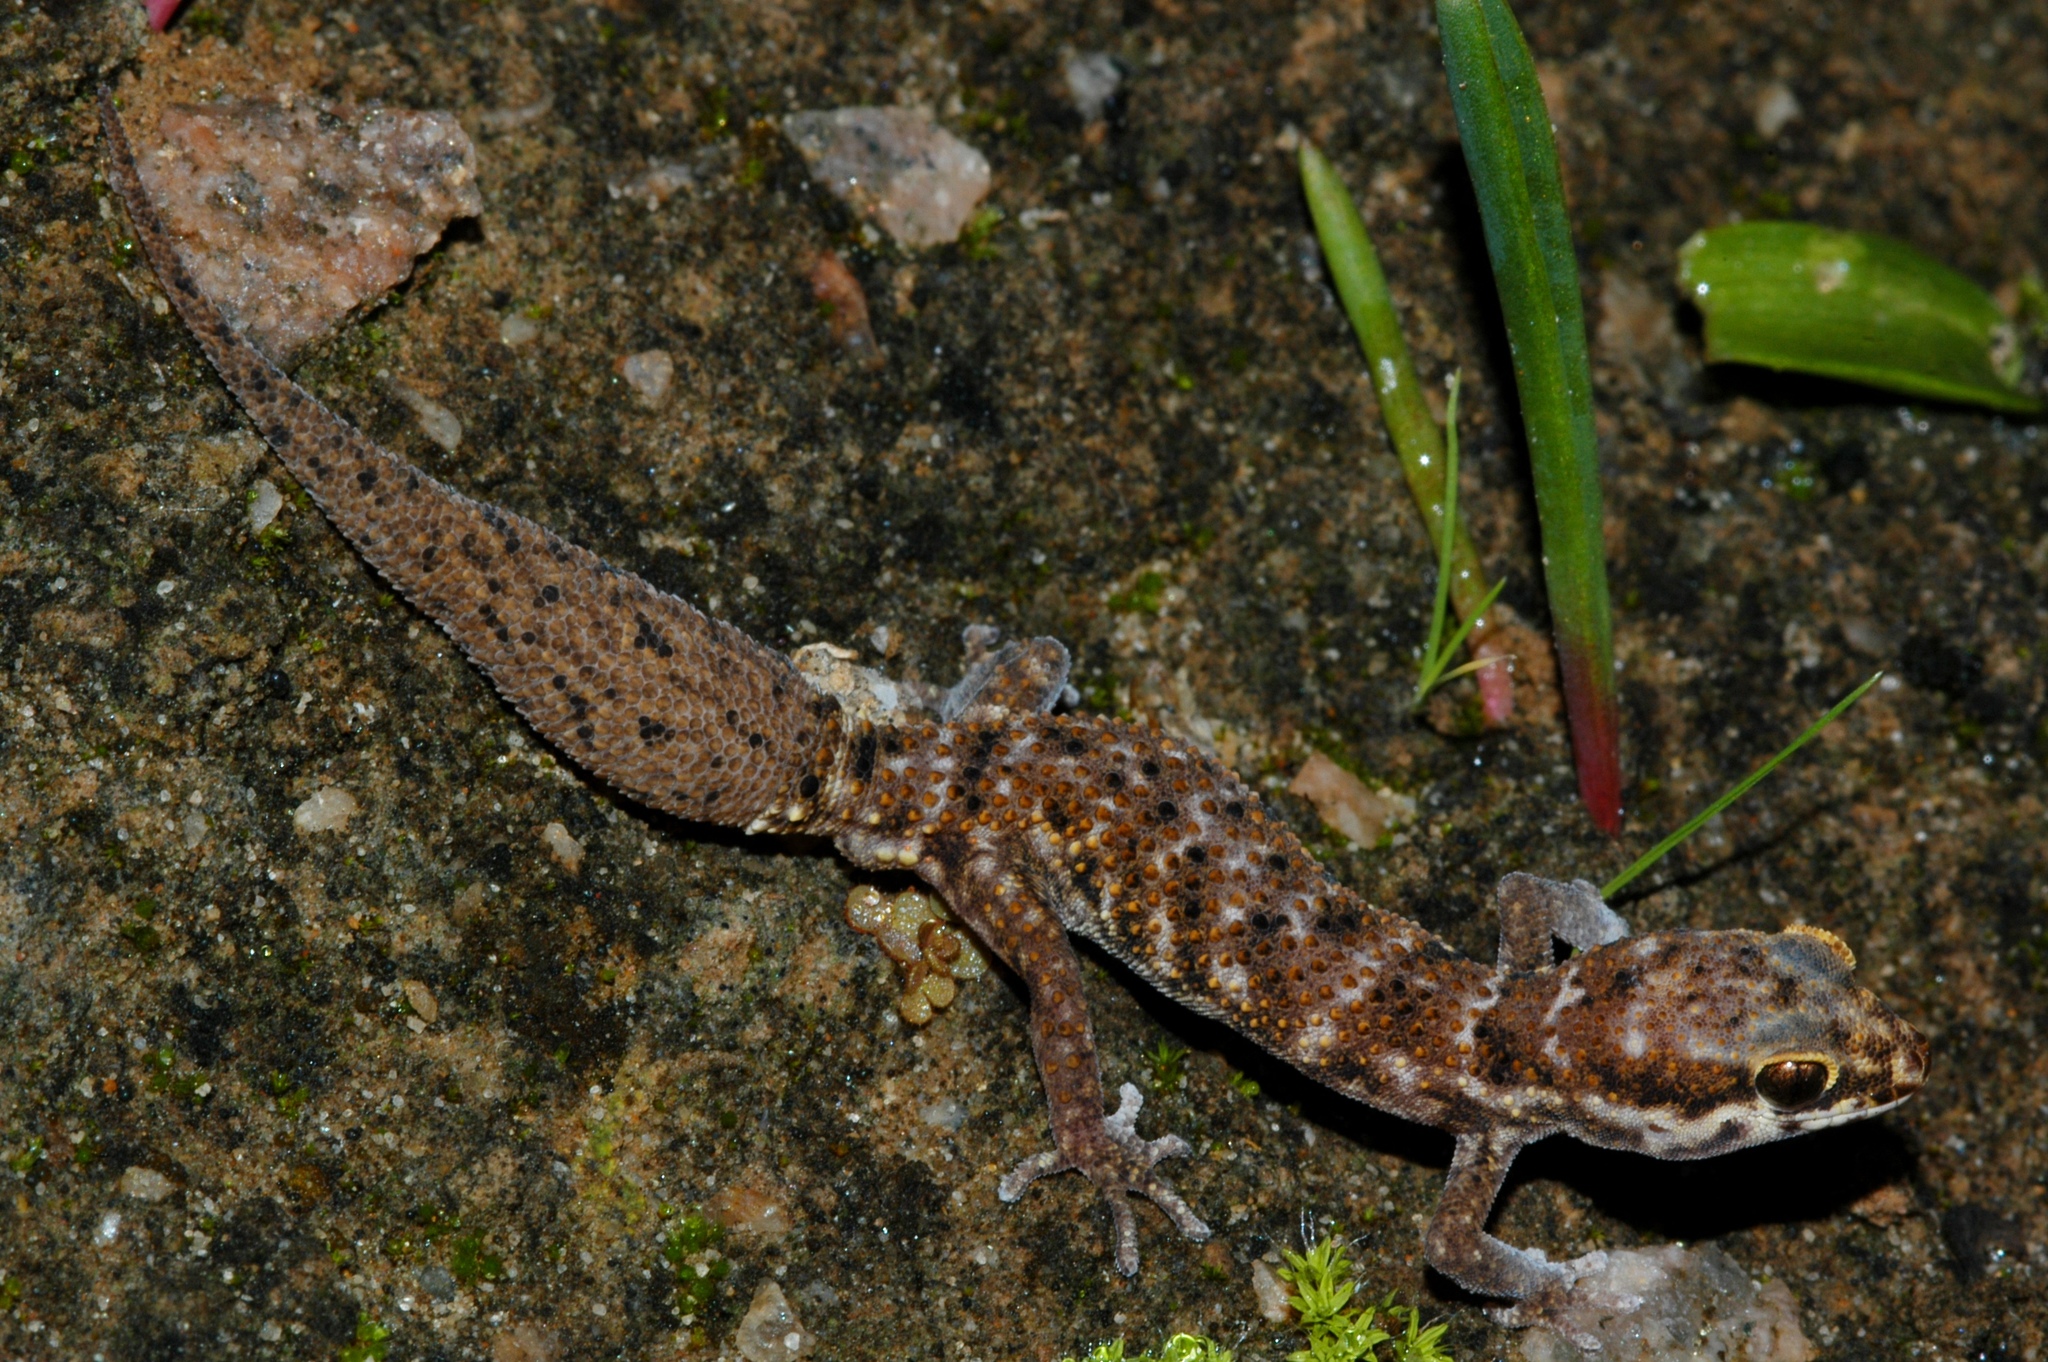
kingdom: Animalia
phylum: Chordata
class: Squamata
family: Gekkonidae
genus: Pachydactylus
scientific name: Pachydactylus labialis
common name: Calvinia thick-toed gecko
